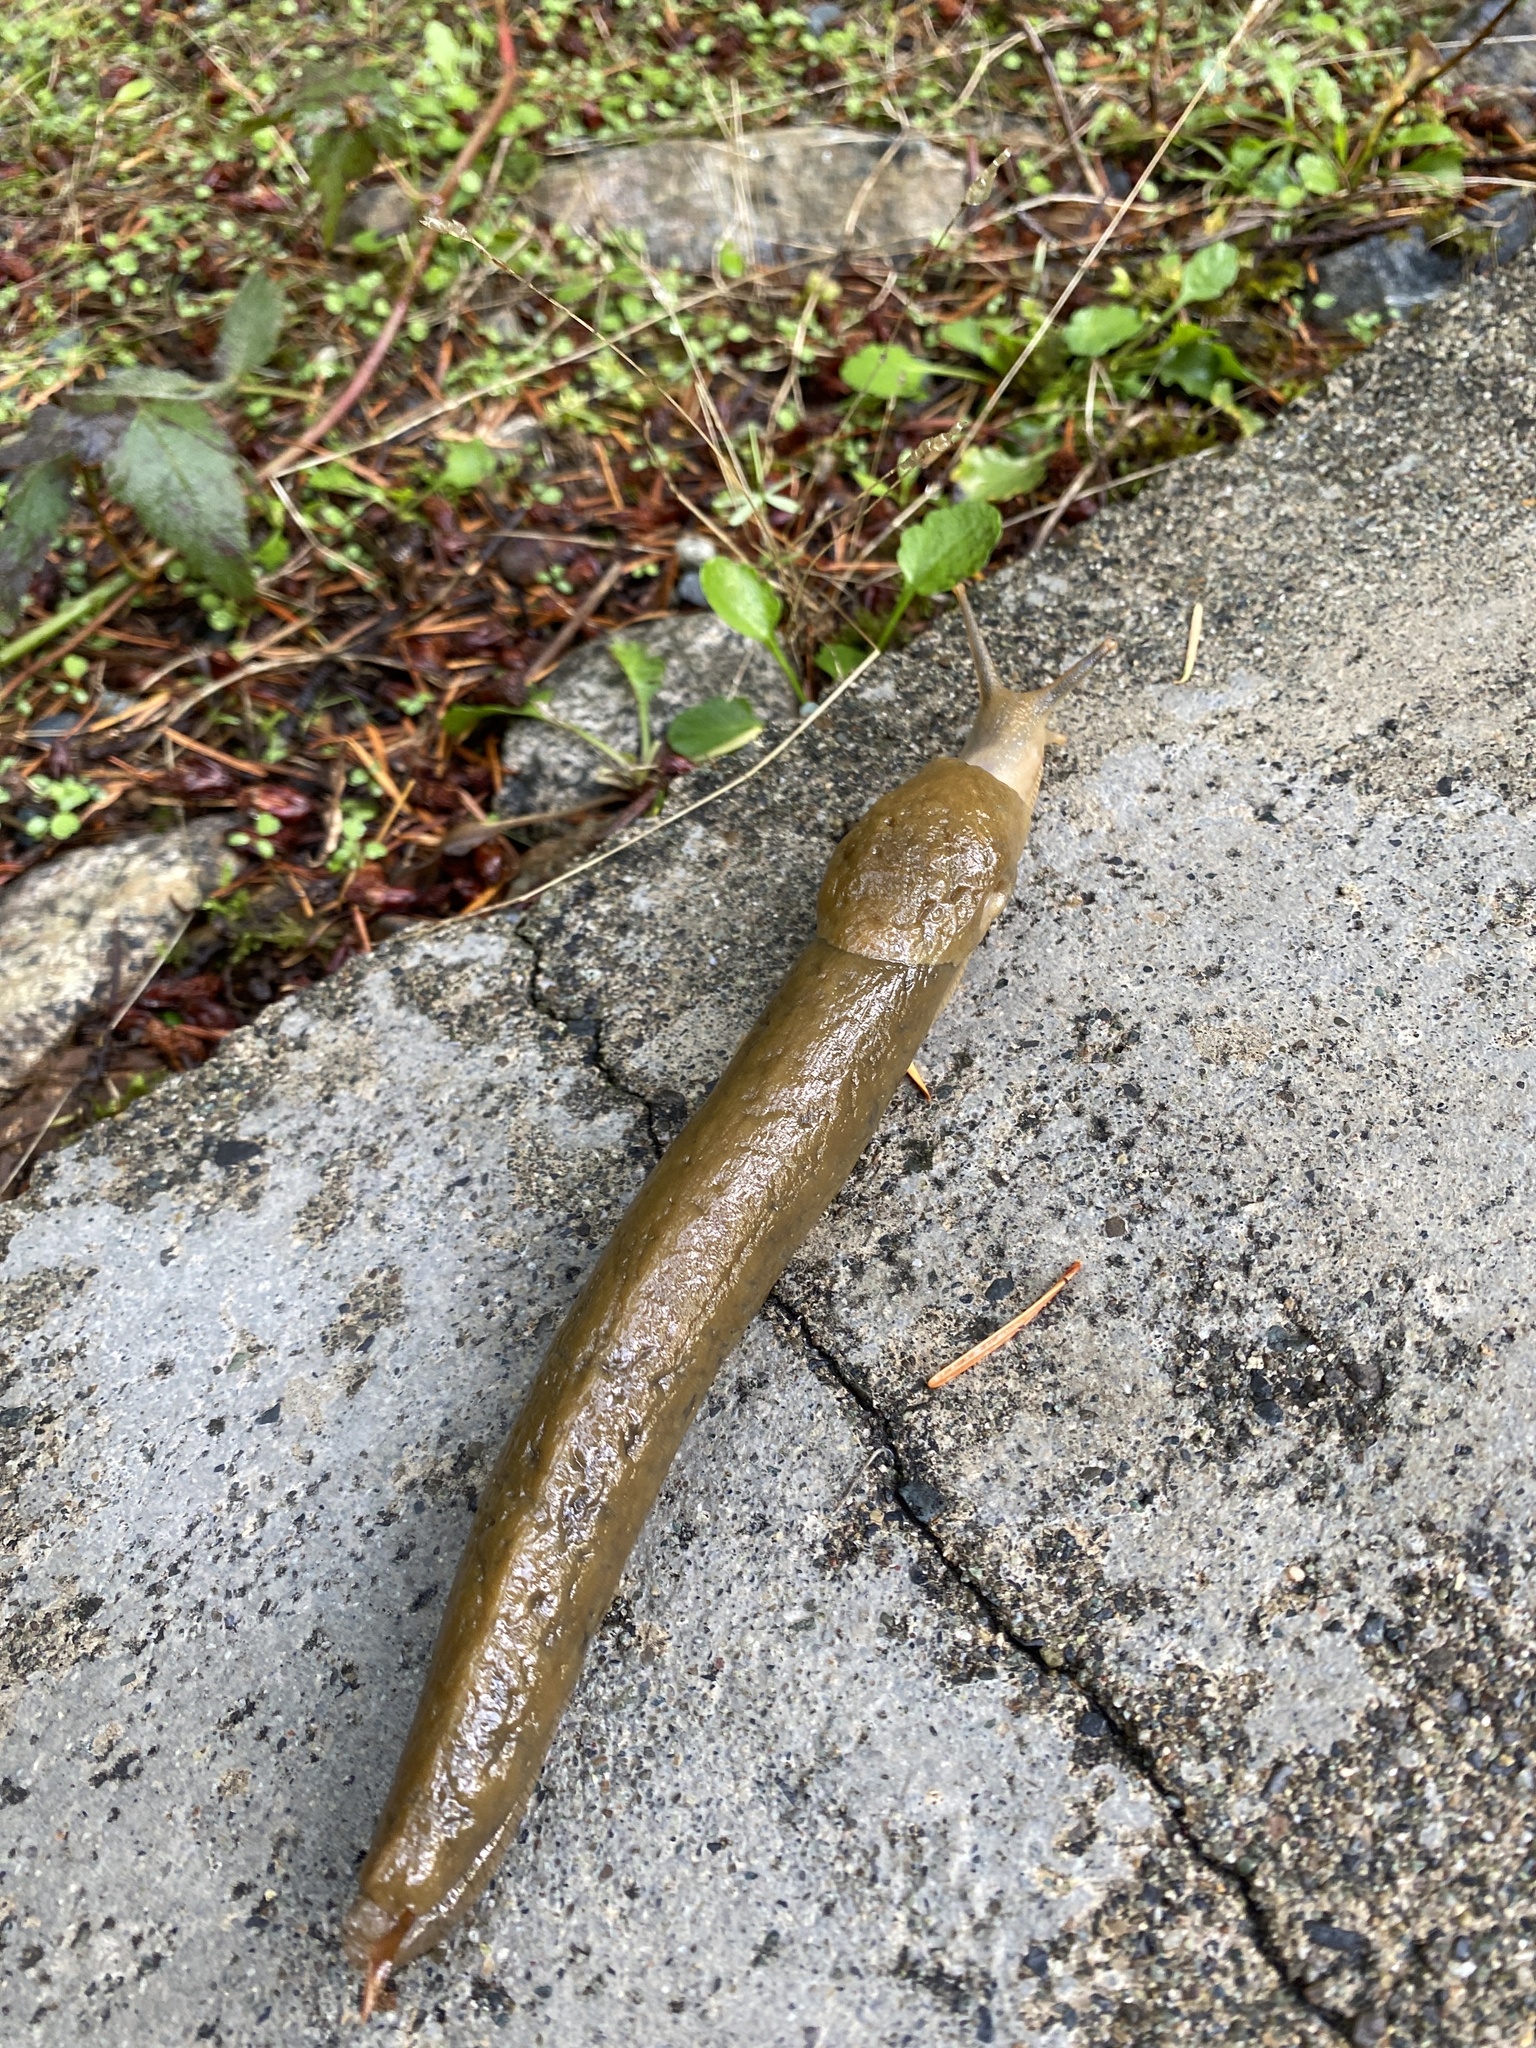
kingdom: Animalia
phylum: Mollusca
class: Gastropoda
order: Stylommatophora
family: Ariolimacidae
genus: Ariolimax
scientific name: Ariolimax columbianus
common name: Pacific banana slug
